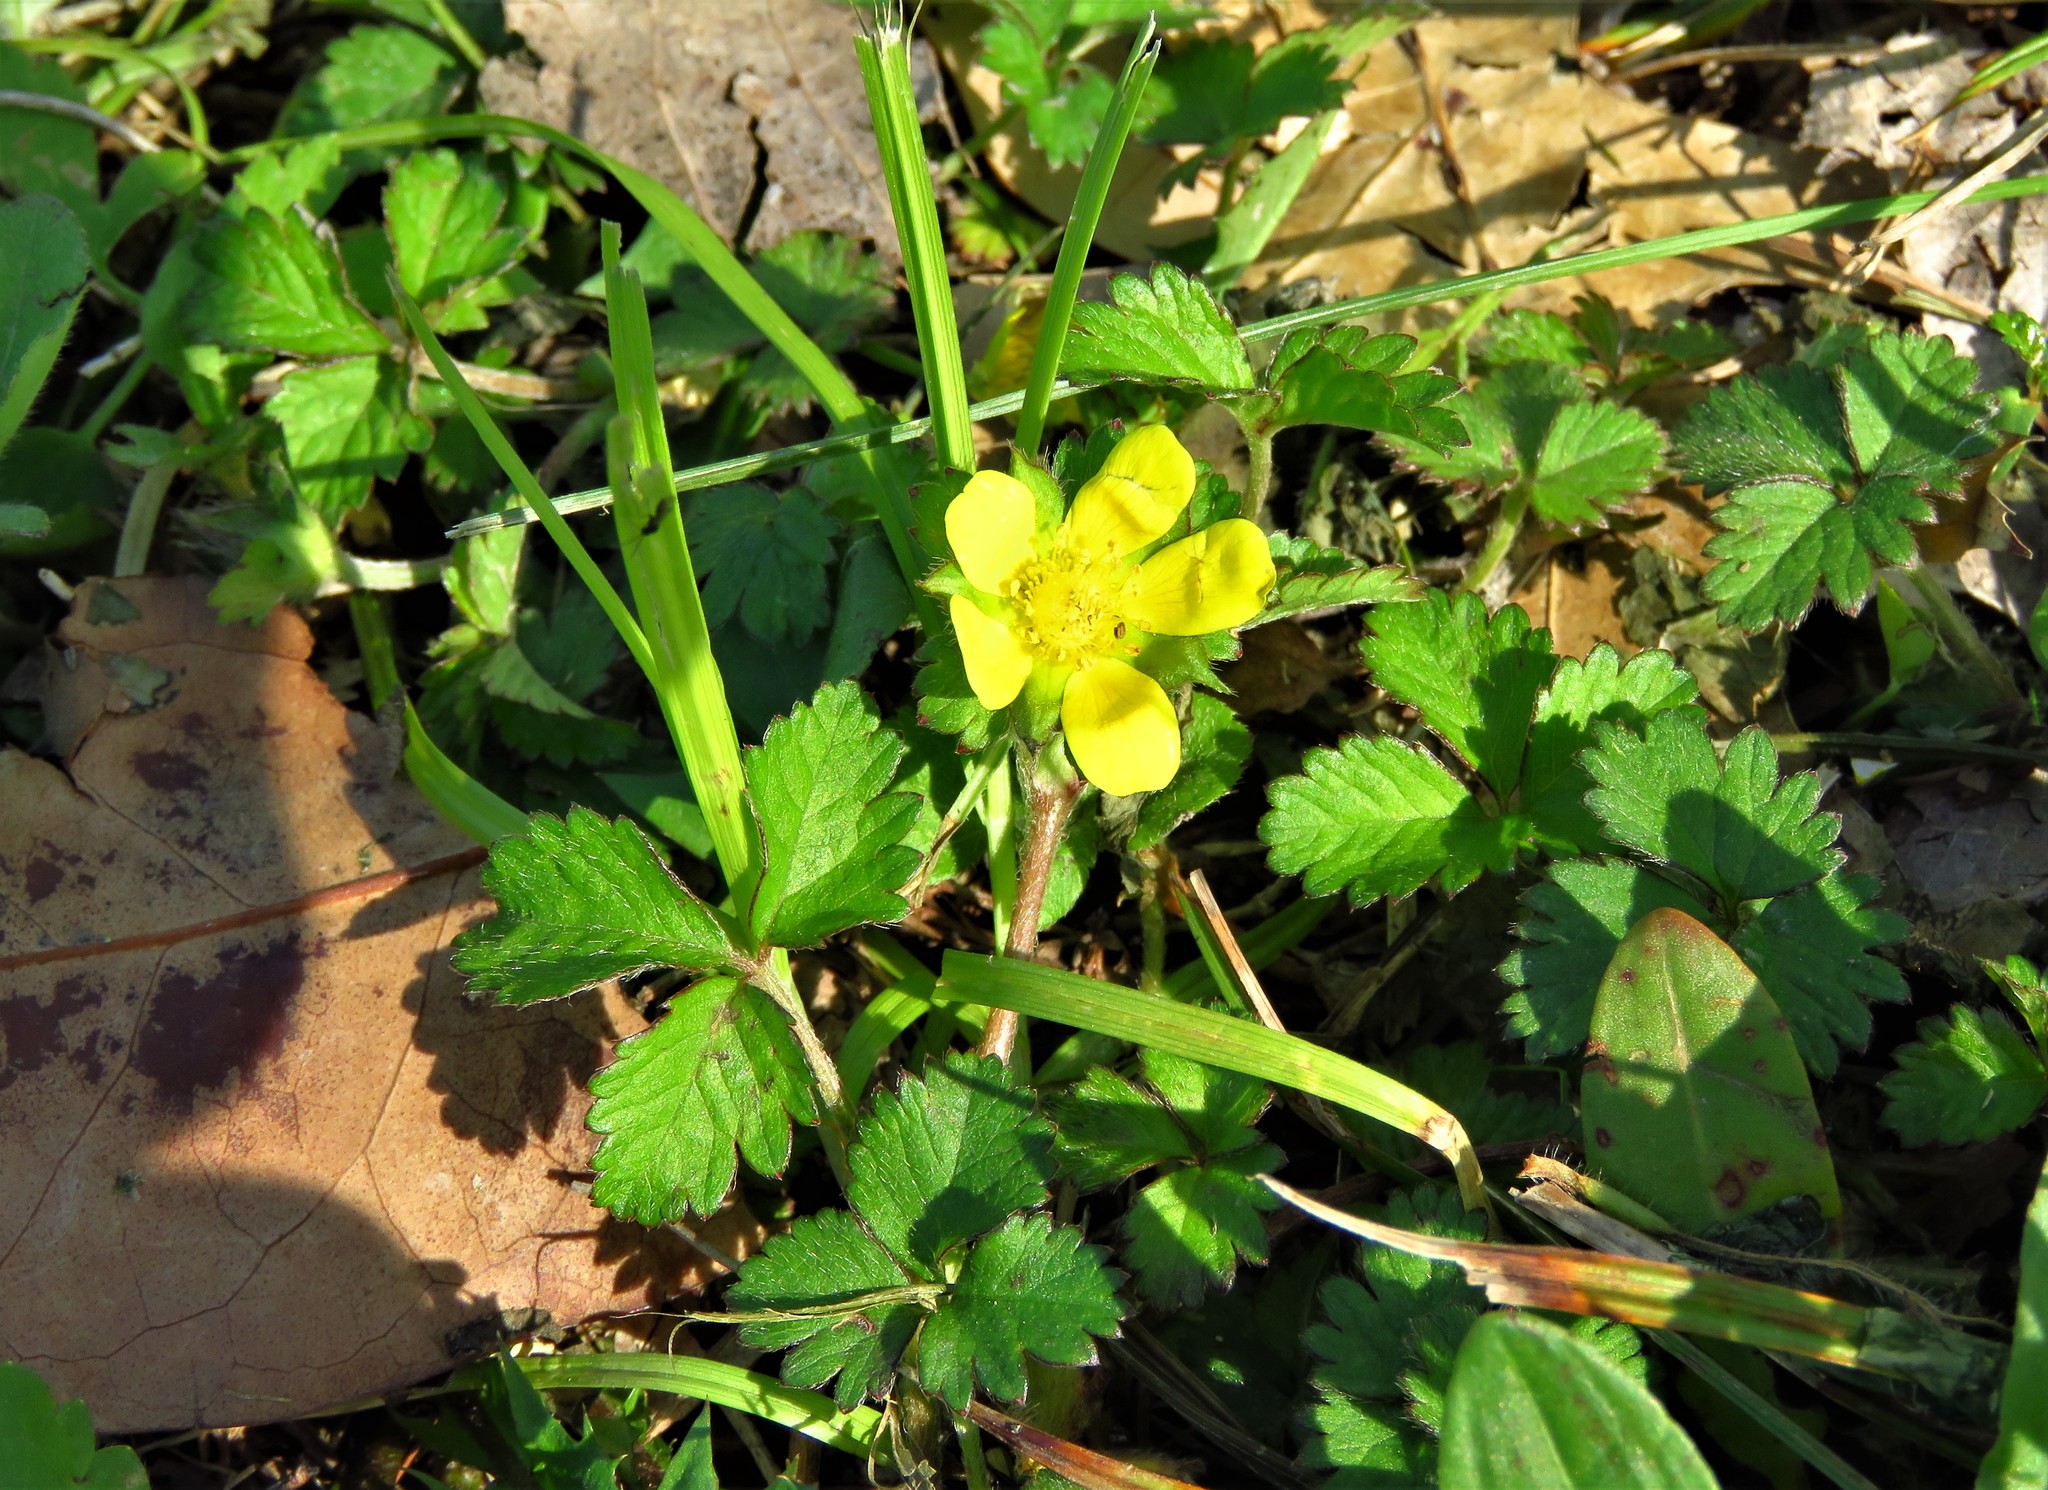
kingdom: Plantae
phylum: Tracheophyta
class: Magnoliopsida
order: Rosales
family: Rosaceae
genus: Potentilla
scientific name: Potentilla indica
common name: Yellow-flowered strawberry
